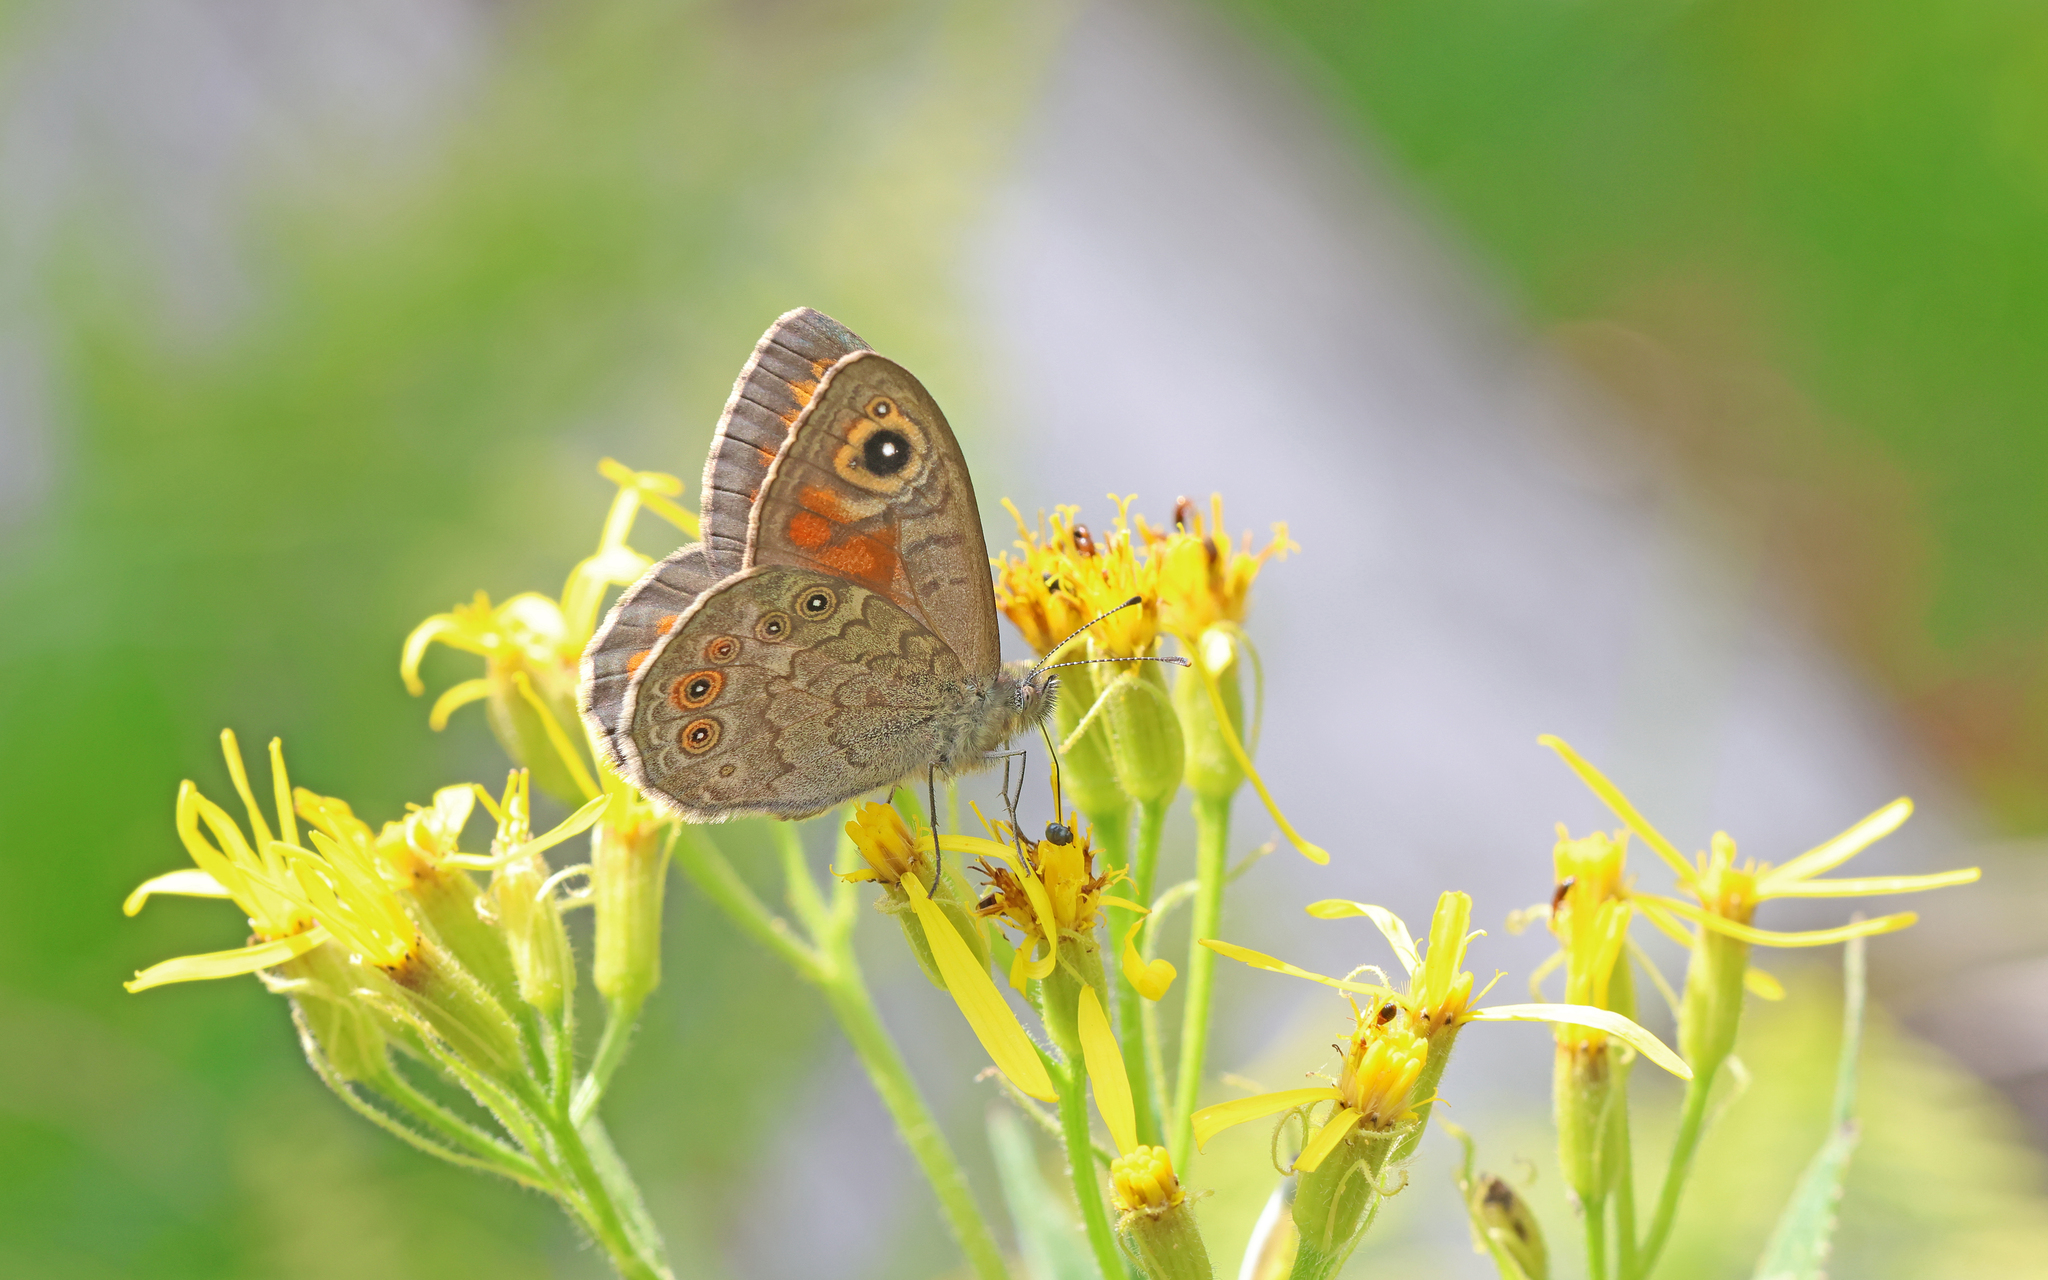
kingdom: Animalia
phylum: Arthropoda
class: Insecta
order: Lepidoptera
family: Nymphalidae
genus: Pararge
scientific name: Pararge Lasiommata maera
